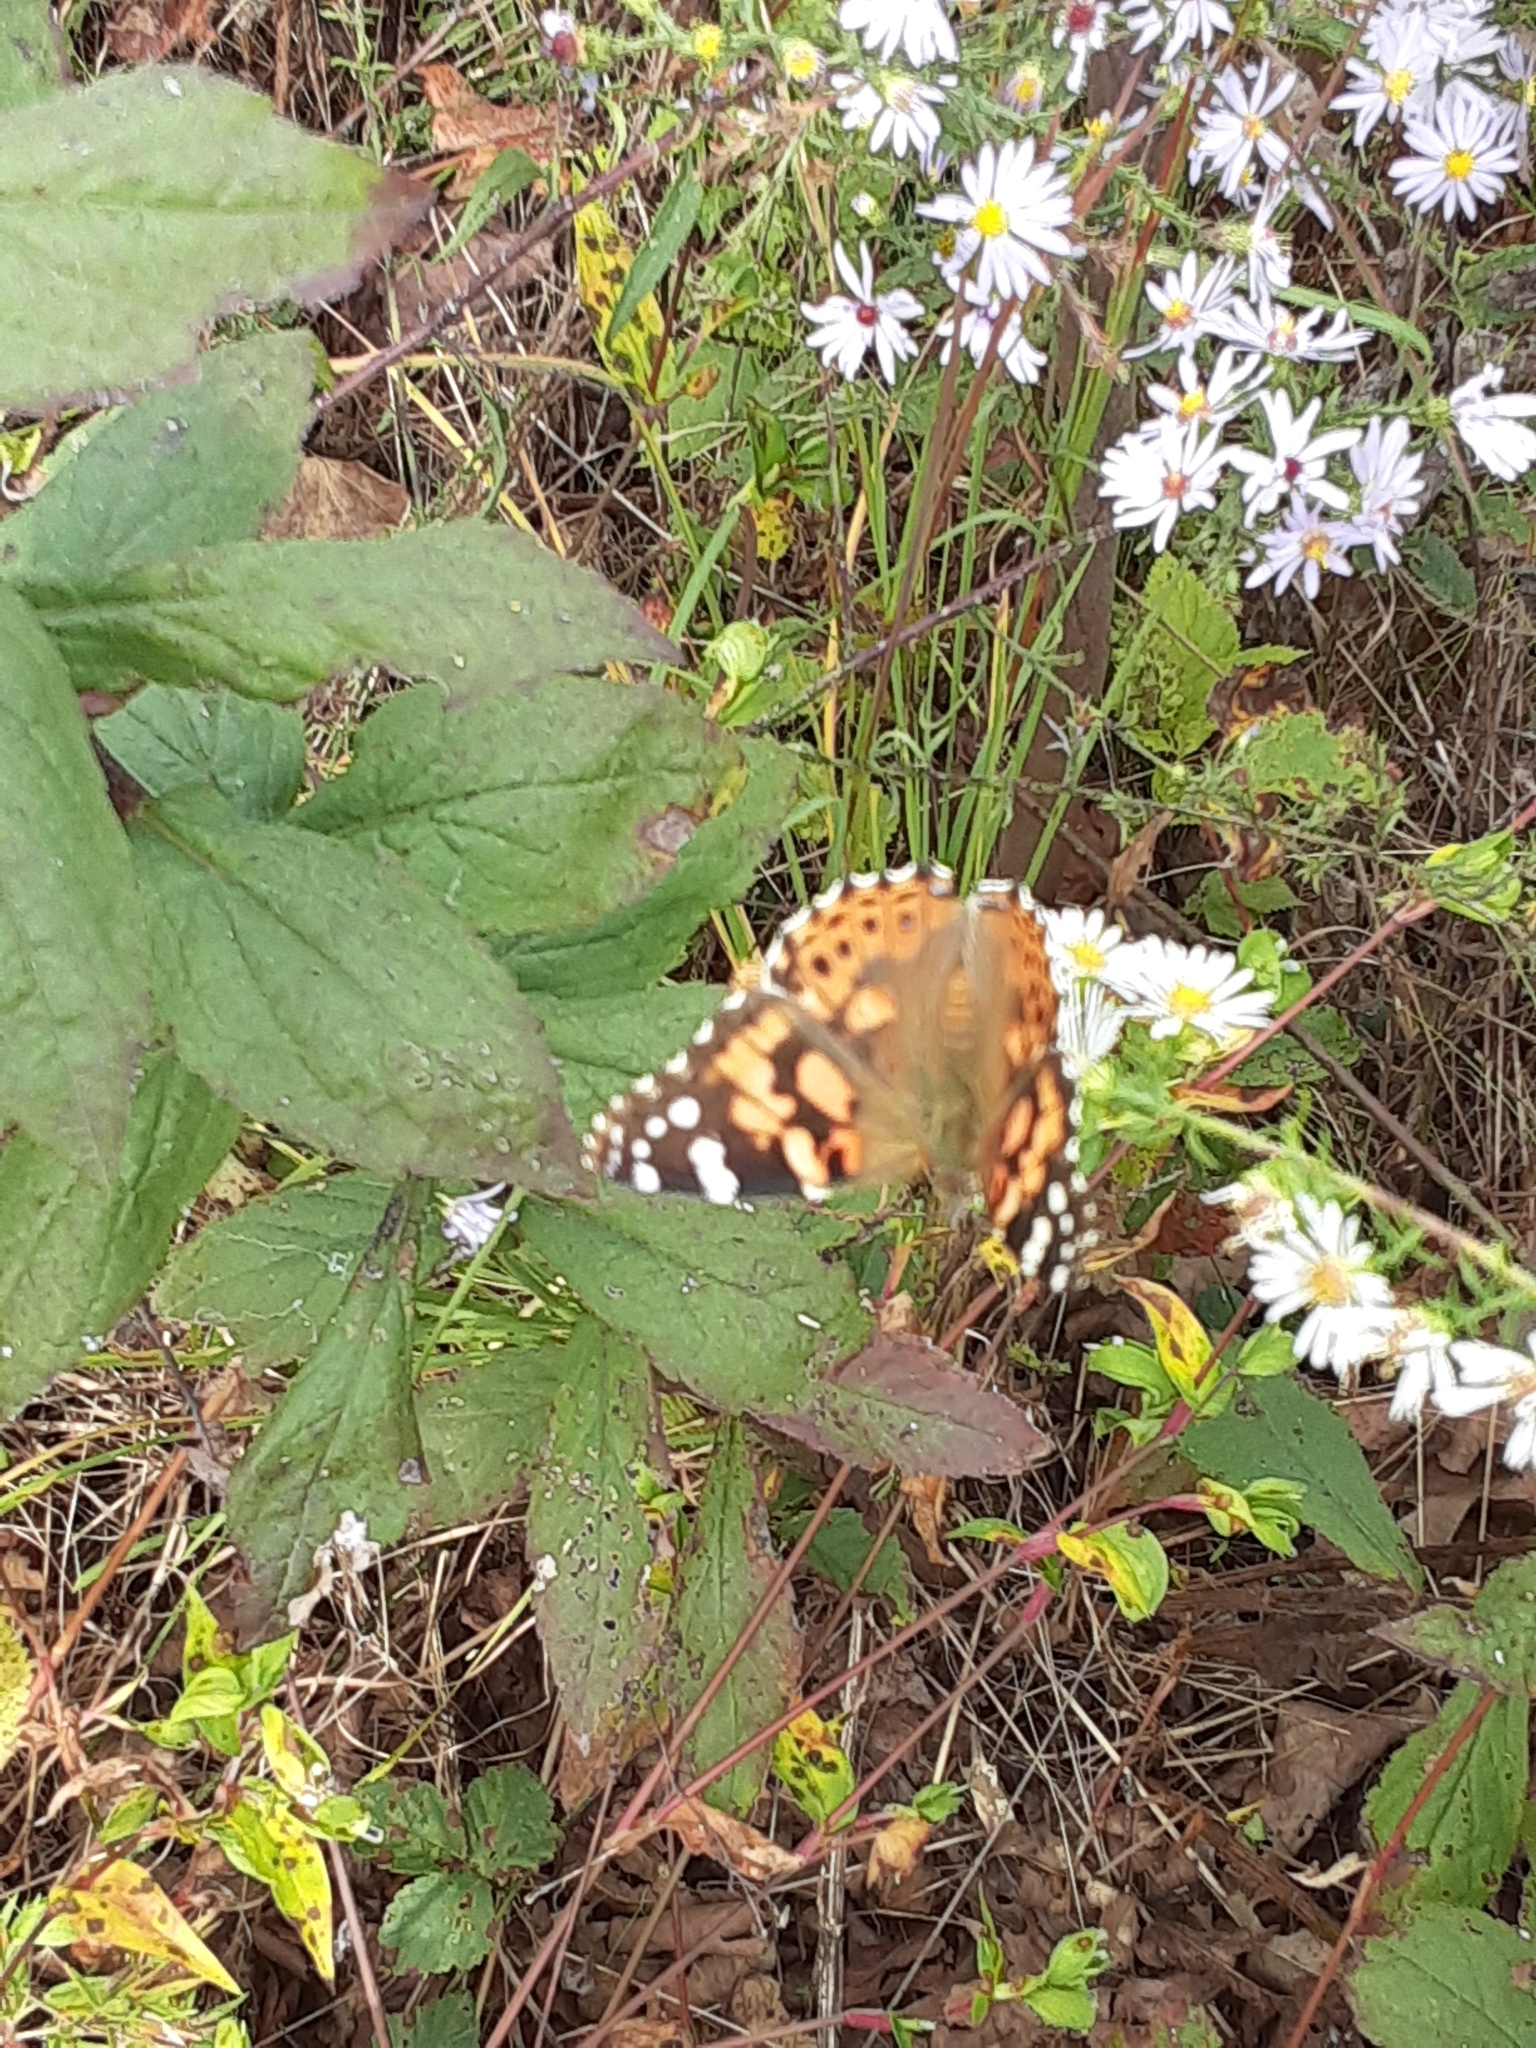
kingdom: Animalia
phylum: Arthropoda
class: Insecta
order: Lepidoptera
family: Nymphalidae
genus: Vanessa
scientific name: Vanessa cardui
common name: Painted lady
